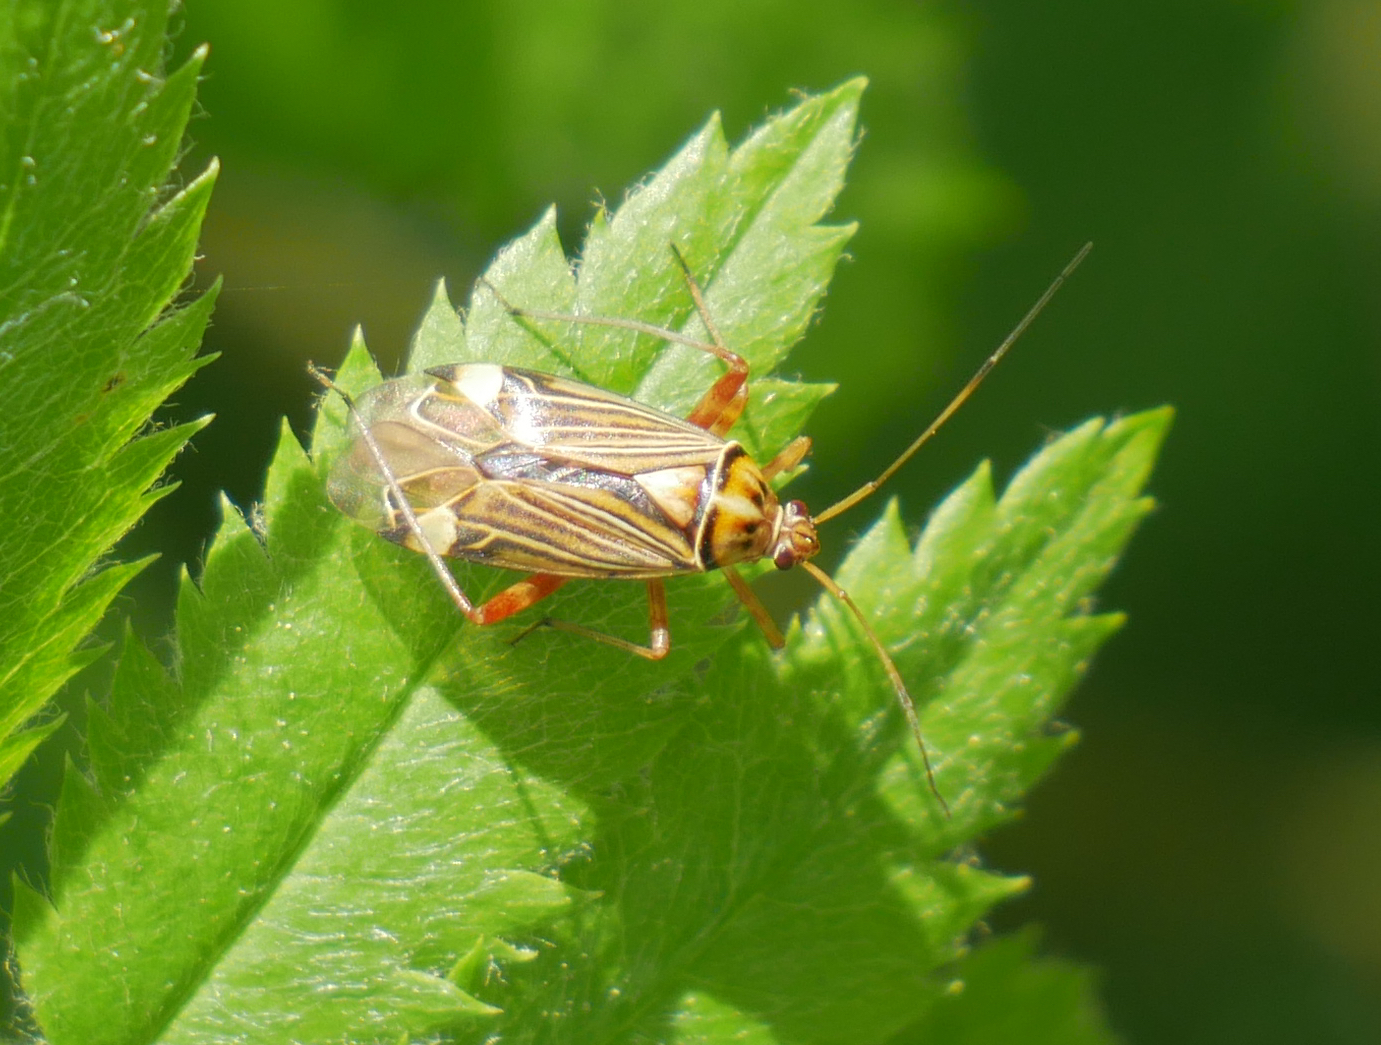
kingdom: Animalia
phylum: Arthropoda
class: Insecta
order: Hemiptera
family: Miridae
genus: Rhabdomiris
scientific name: Rhabdomiris striatellus
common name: Plant bug
